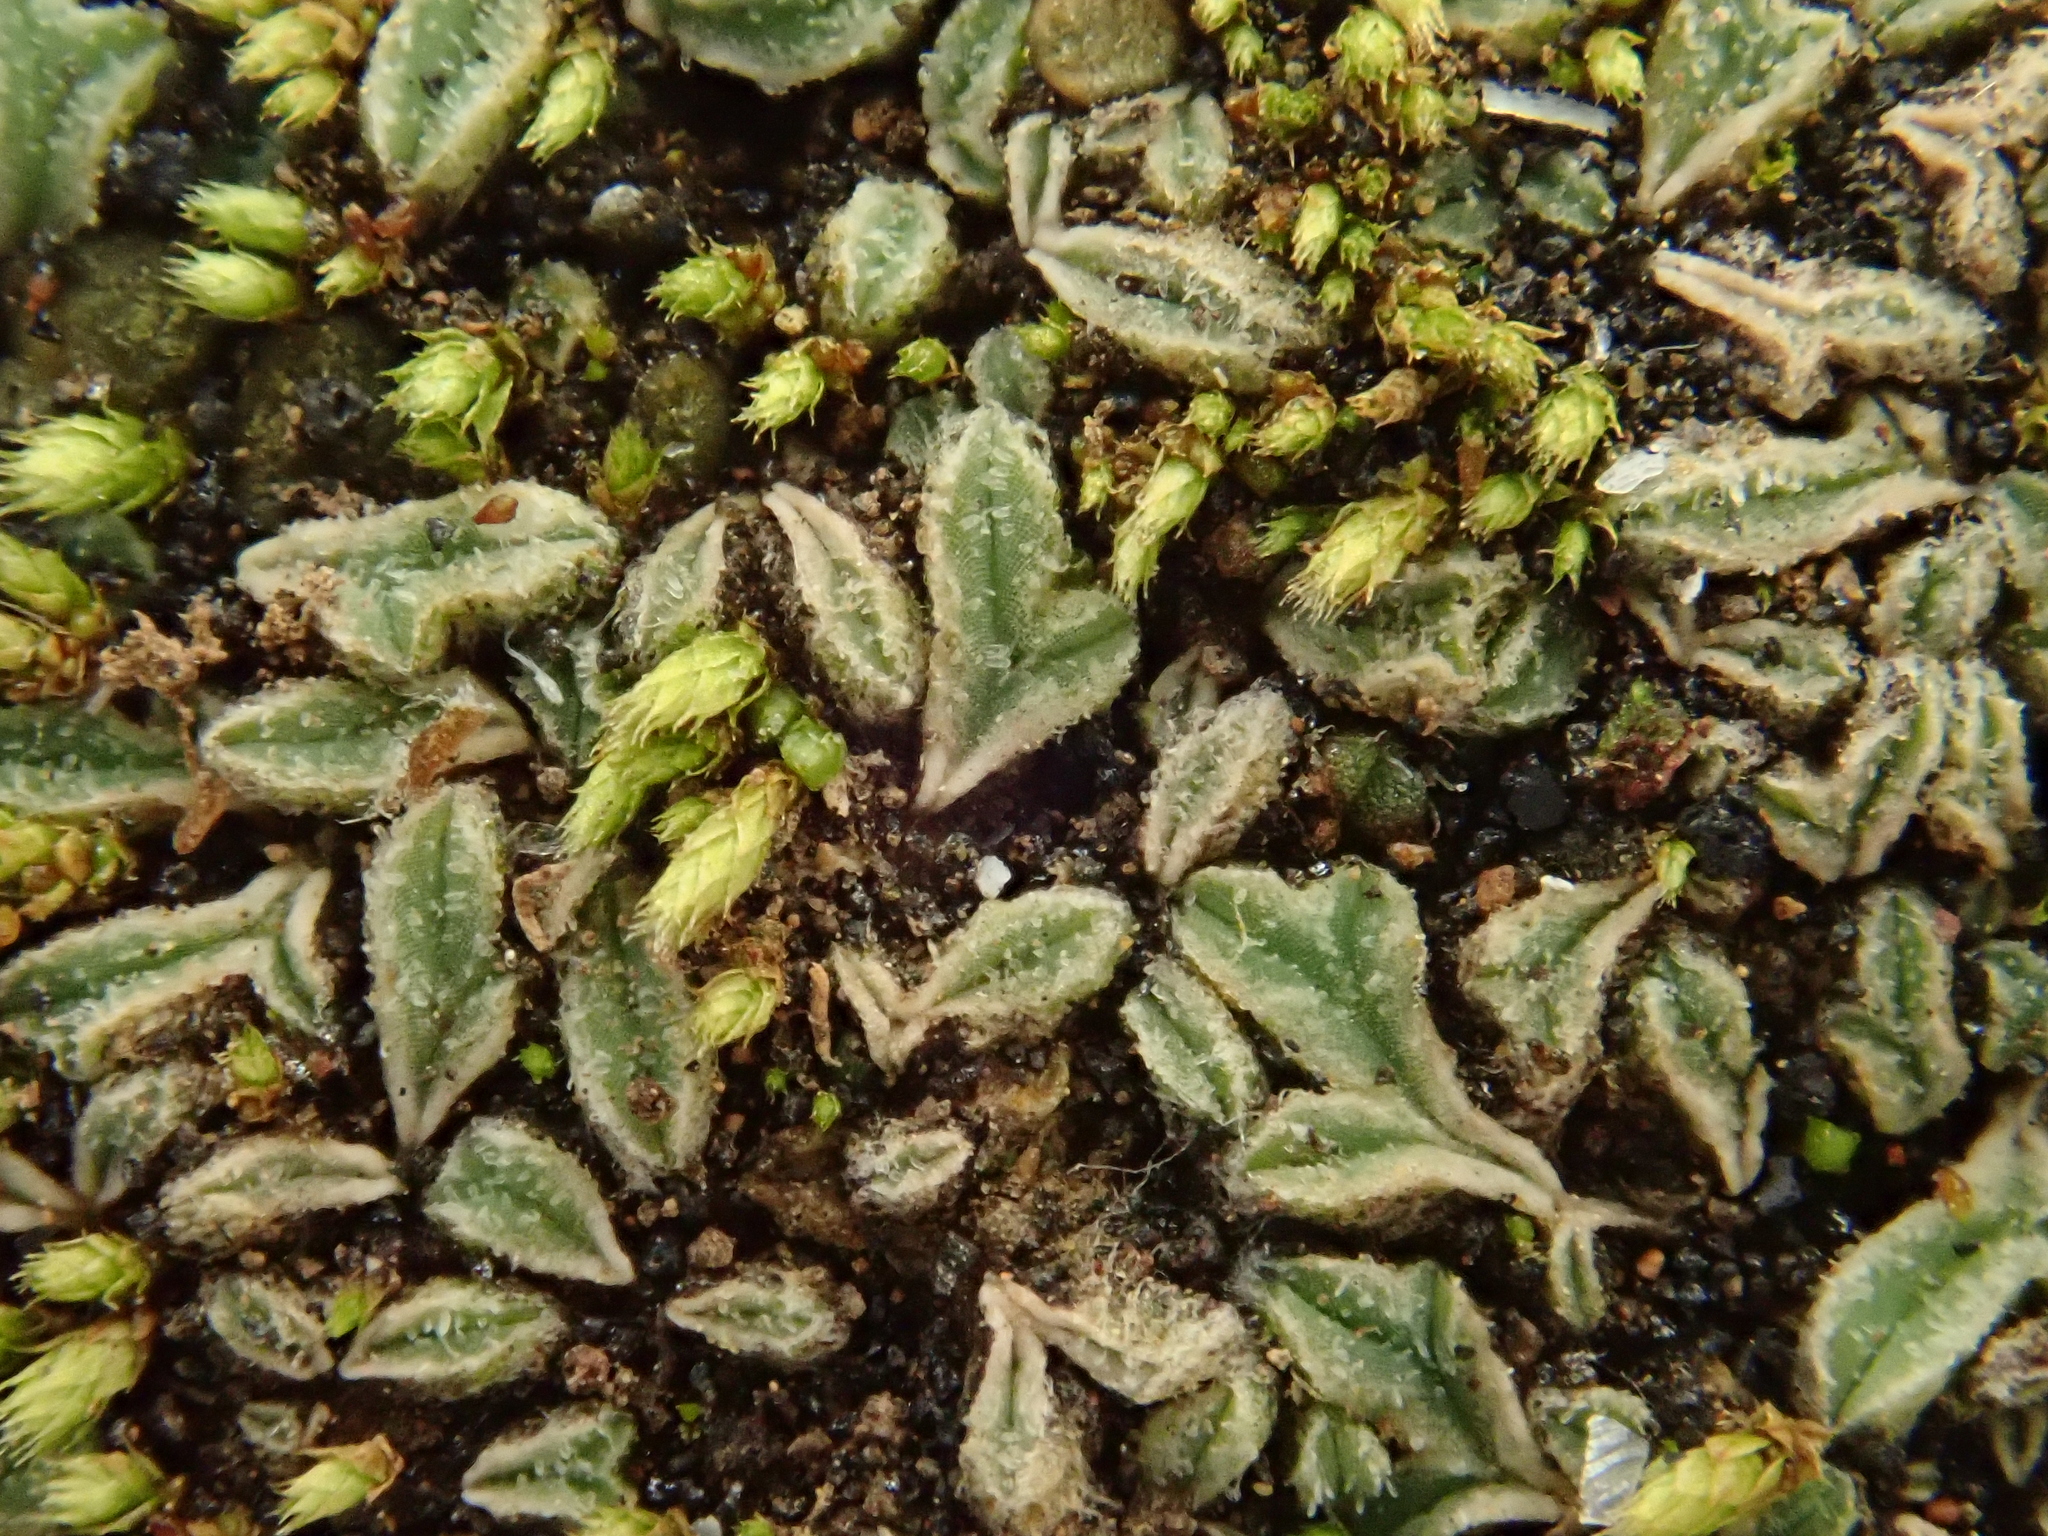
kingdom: Plantae
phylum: Marchantiophyta
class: Marchantiopsida
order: Marchantiales
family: Ricciaceae
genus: Riccia
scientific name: Riccia papillosa
